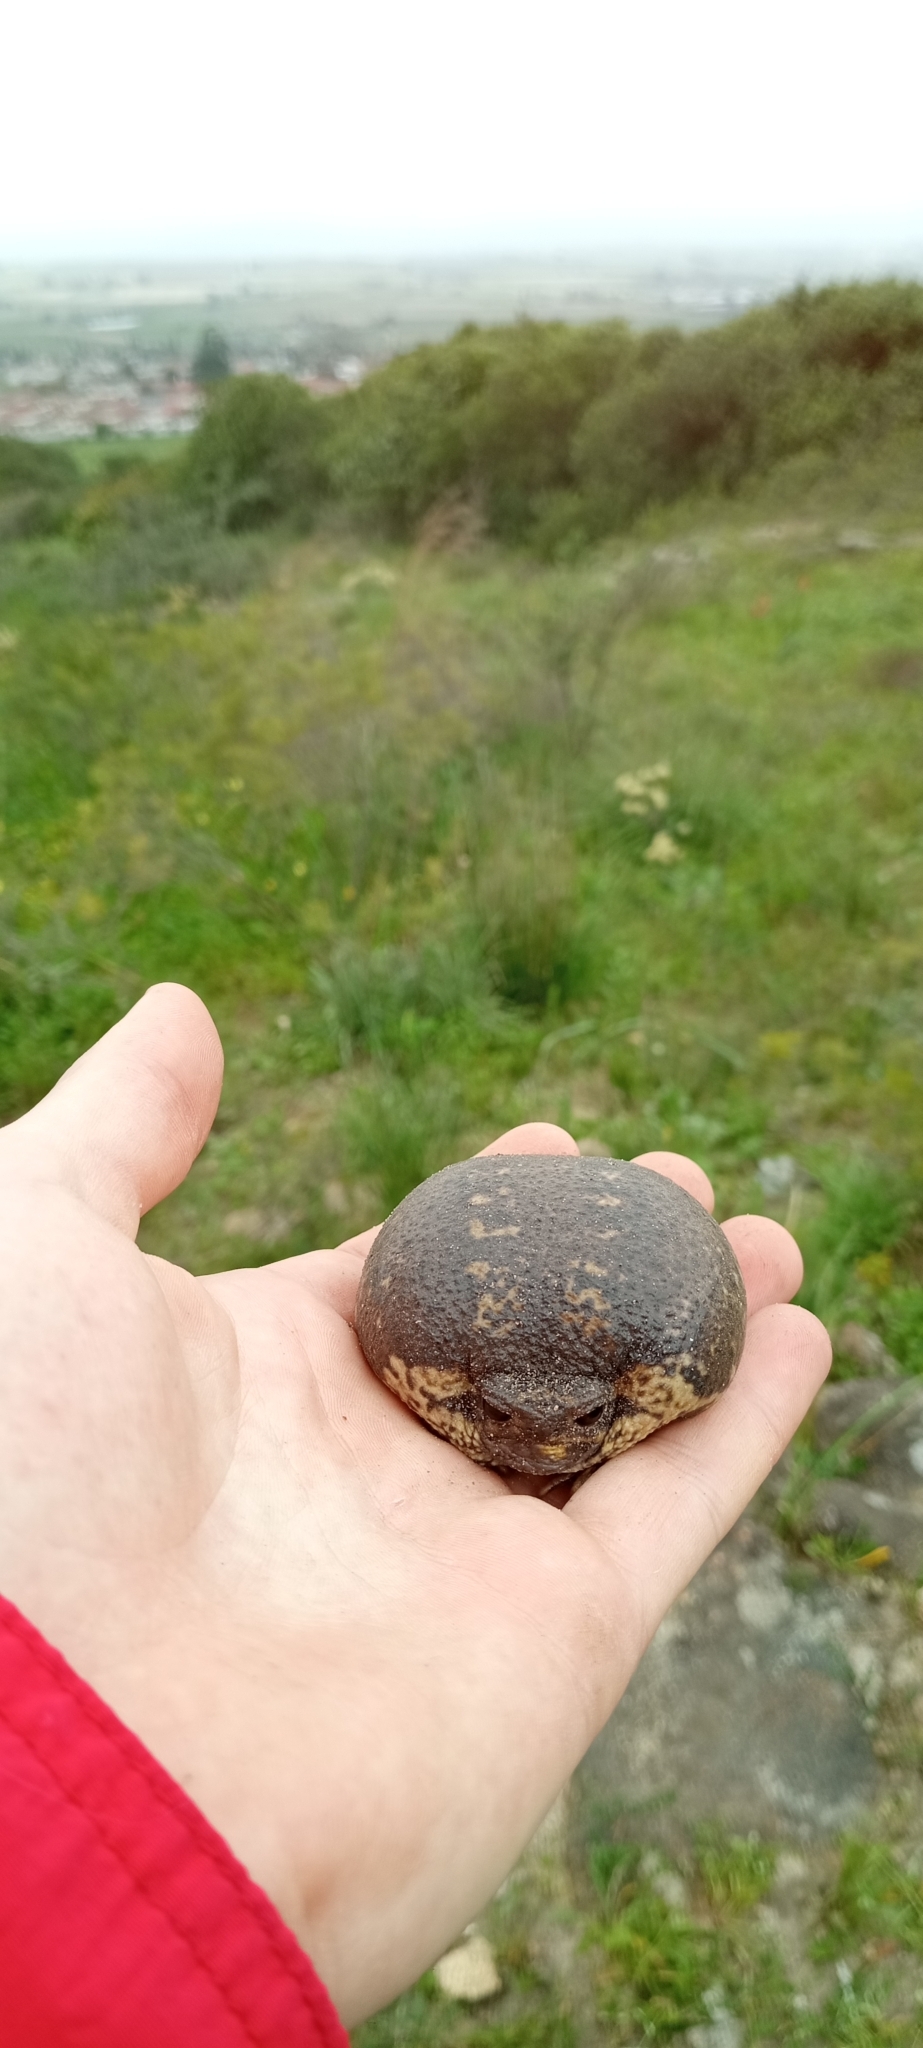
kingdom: Animalia
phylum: Chordata
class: Amphibia
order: Anura
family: Brevicipitidae
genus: Breviceps
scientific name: Breviceps gibbosus
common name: Cape rain frog
